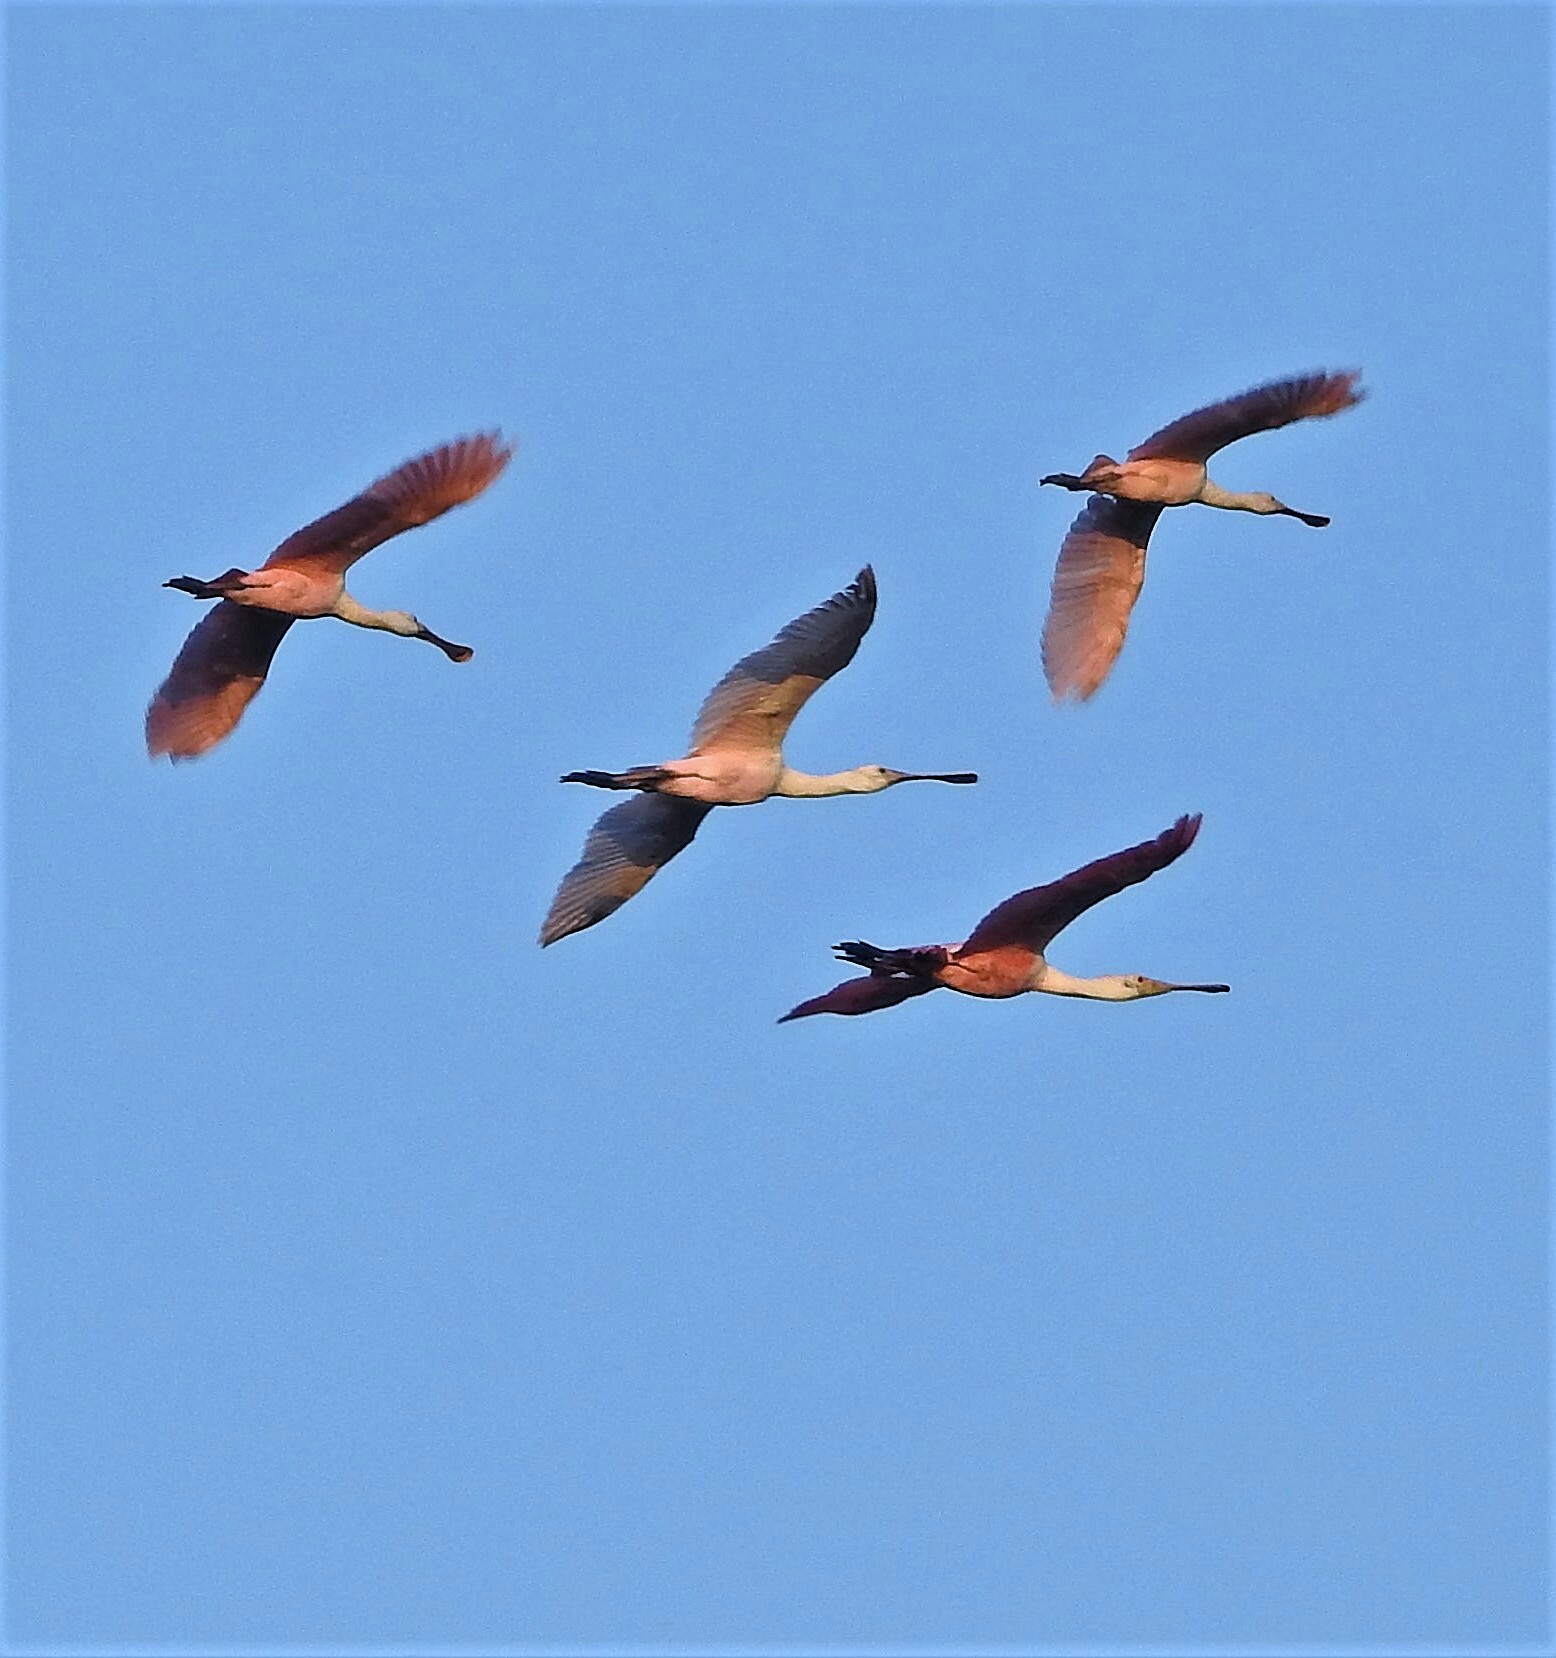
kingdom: Animalia
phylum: Chordata
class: Aves
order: Pelecaniformes
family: Threskiornithidae
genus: Platalea
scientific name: Platalea ajaja
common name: Roseate spoonbill
